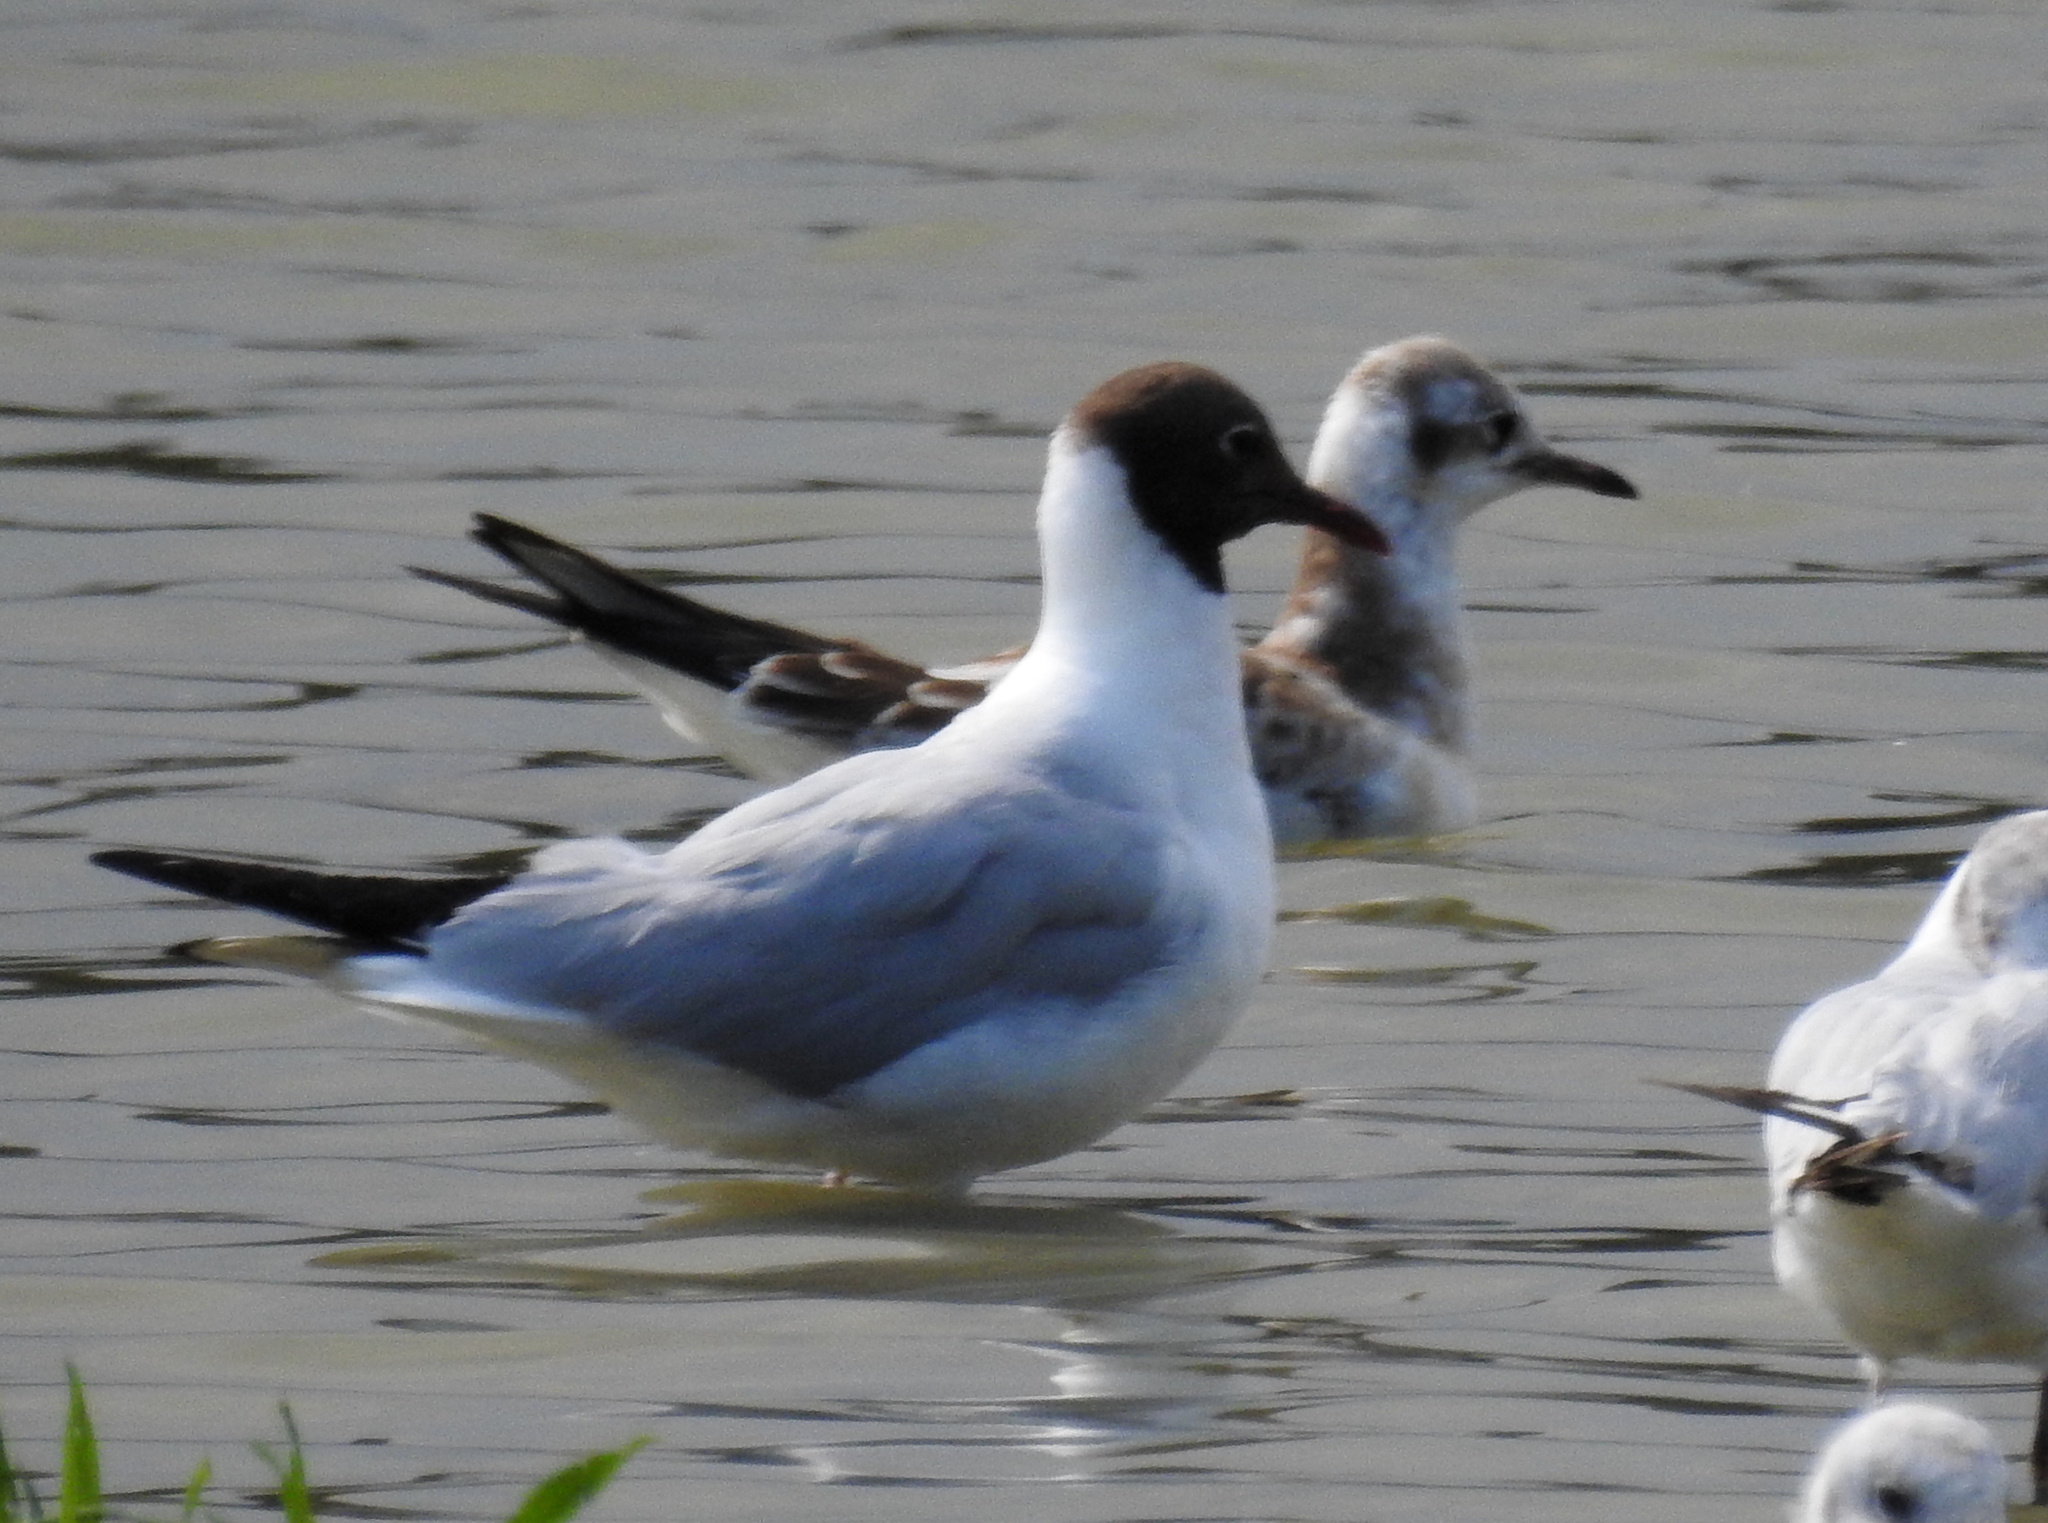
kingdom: Animalia
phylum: Chordata
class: Aves
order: Charadriiformes
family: Laridae
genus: Chroicocephalus
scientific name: Chroicocephalus ridibundus
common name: Black-headed gull
